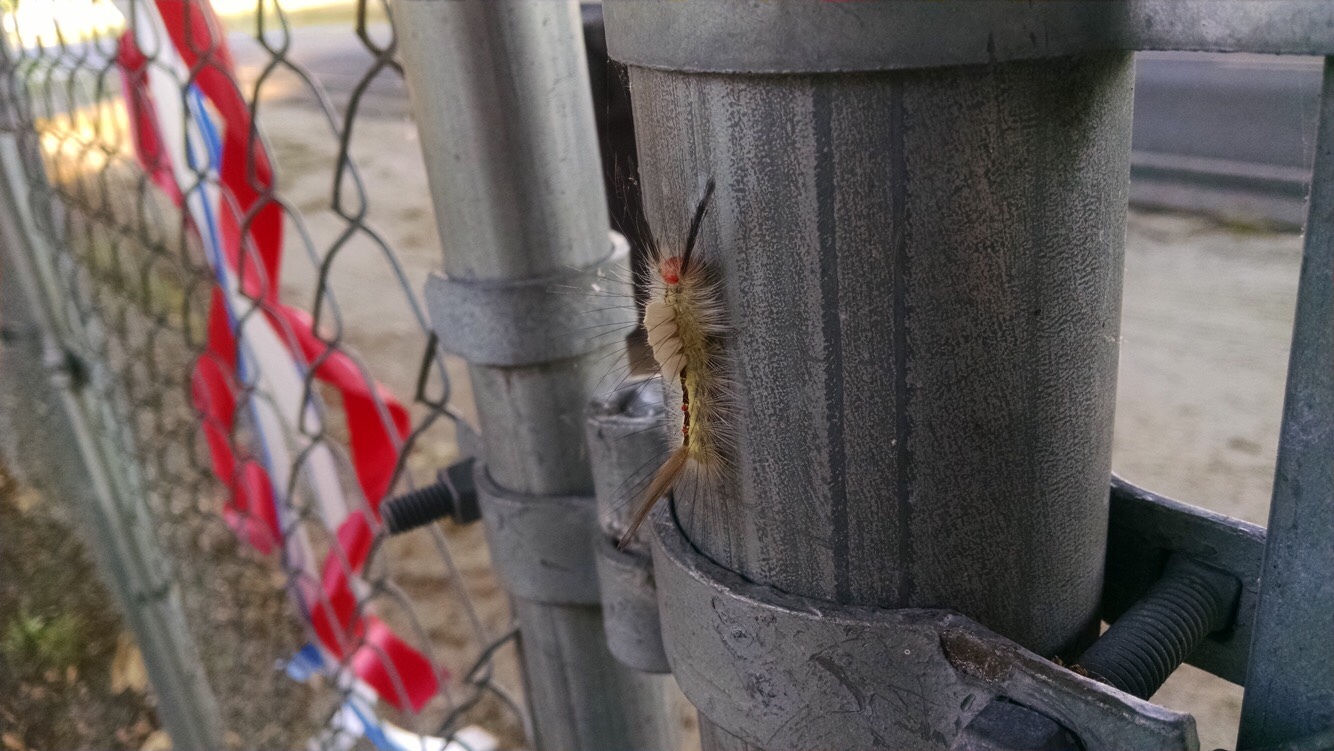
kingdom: Animalia
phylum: Arthropoda
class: Insecta
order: Lepidoptera
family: Erebidae
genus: Orgyia
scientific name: Orgyia leucostigma
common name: White-marked tussock moth
